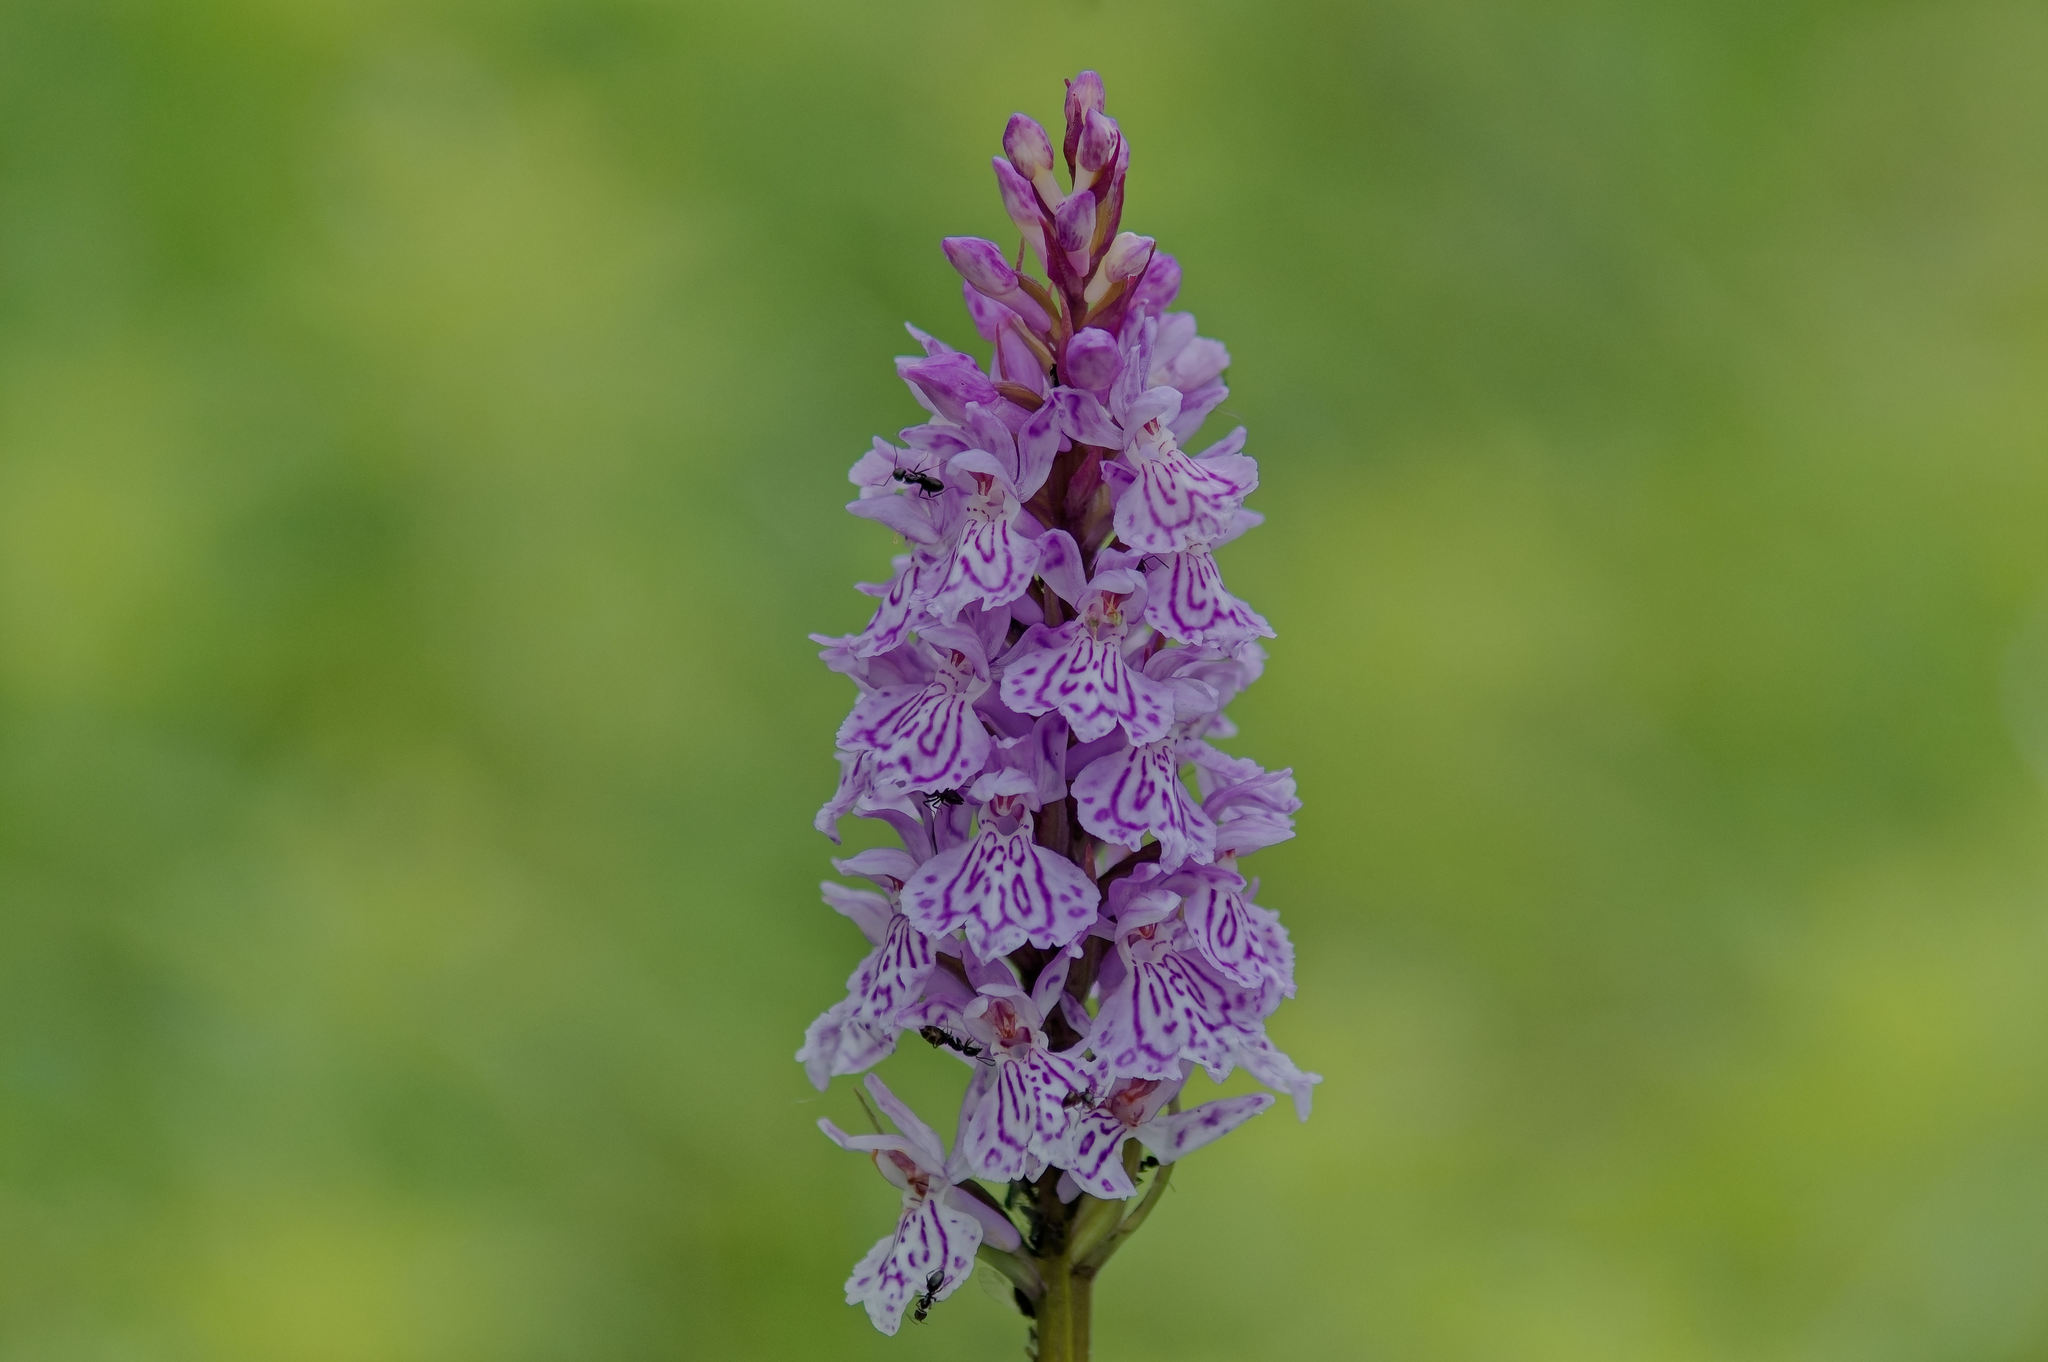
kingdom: Plantae
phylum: Tracheophyta
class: Liliopsida
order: Asparagales
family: Orchidaceae
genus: Dactylorhiza
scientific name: Dactylorhiza maculata
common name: Heath spotted-orchid
